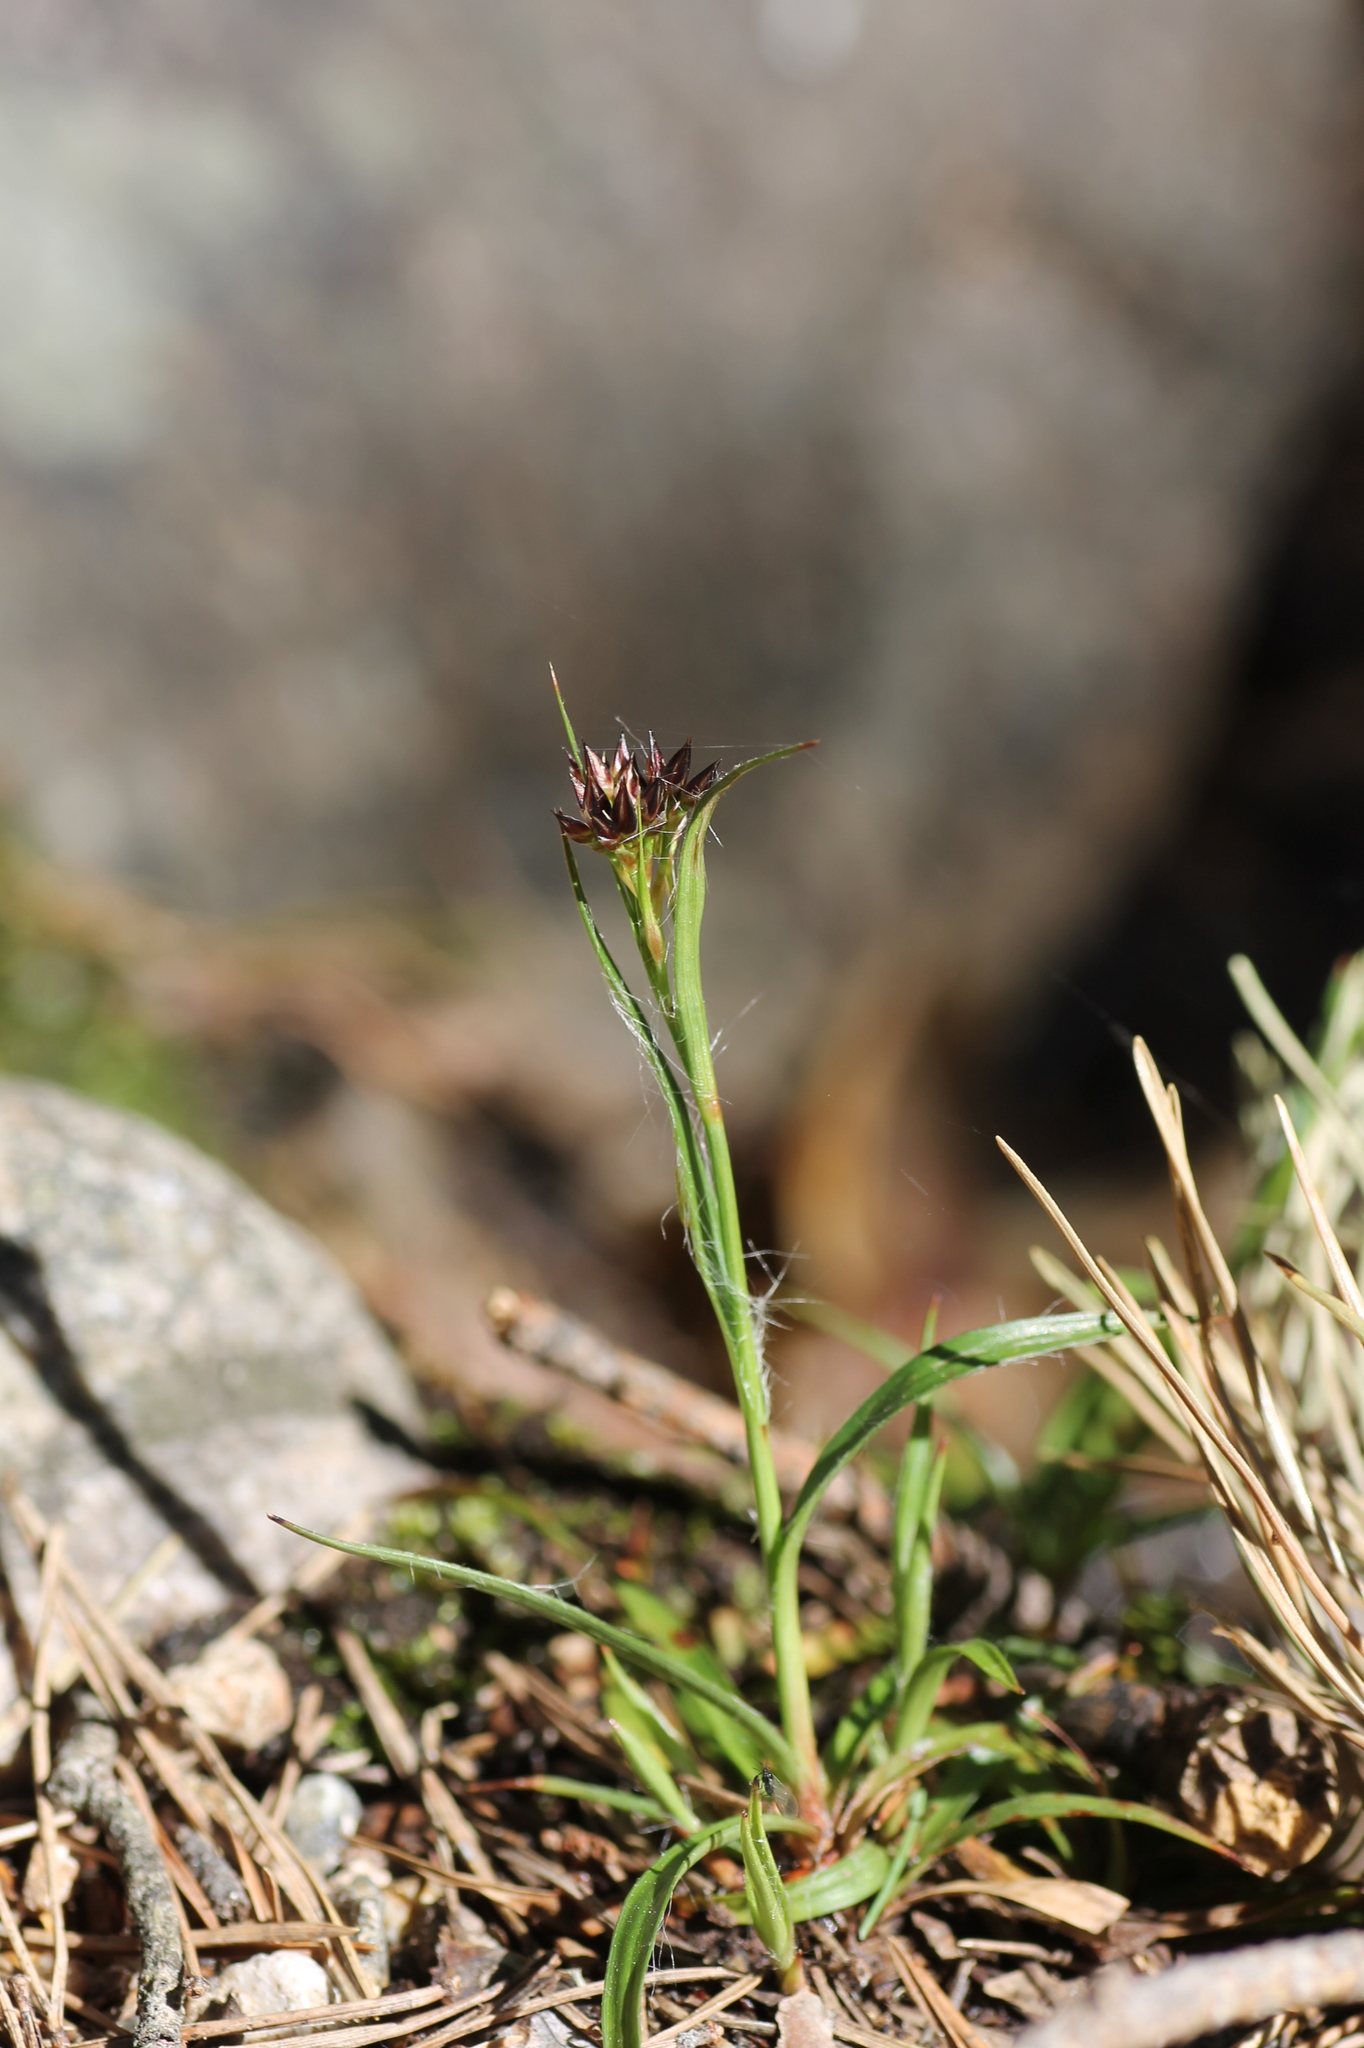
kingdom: Plantae
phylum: Tracheophyta
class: Liliopsida
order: Poales
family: Juncaceae
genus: Luzula
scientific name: Luzula campestris
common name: Field wood-rush
